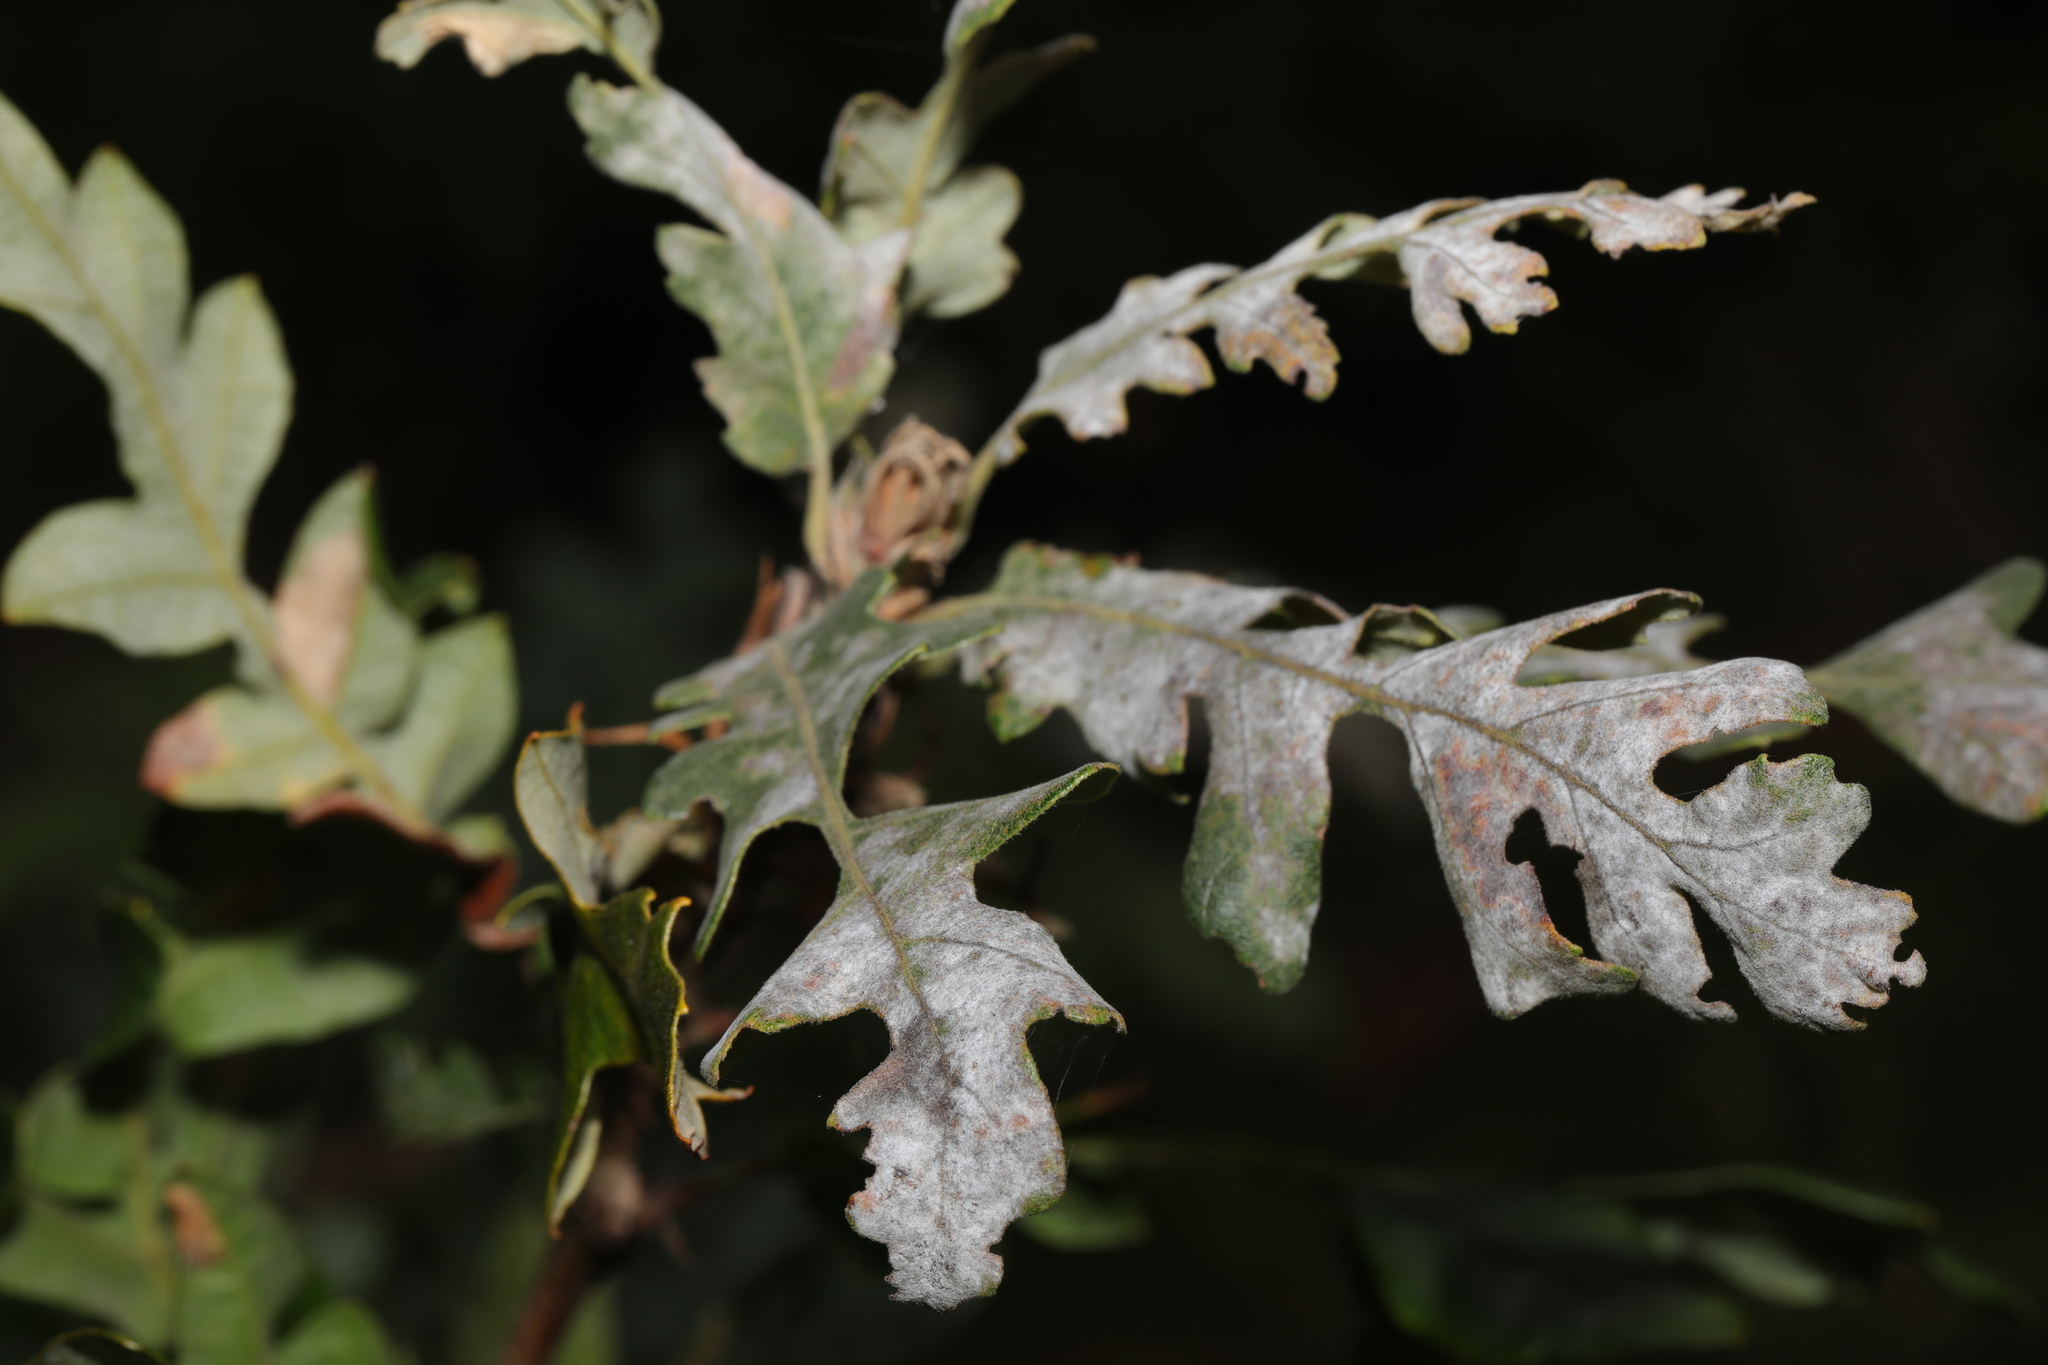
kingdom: Fungi
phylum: Ascomycota
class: Leotiomycetes
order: Helotiales
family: Erysiphaceae
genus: Erysiphe
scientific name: Erysiphe alphitoides
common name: Oak mildew
